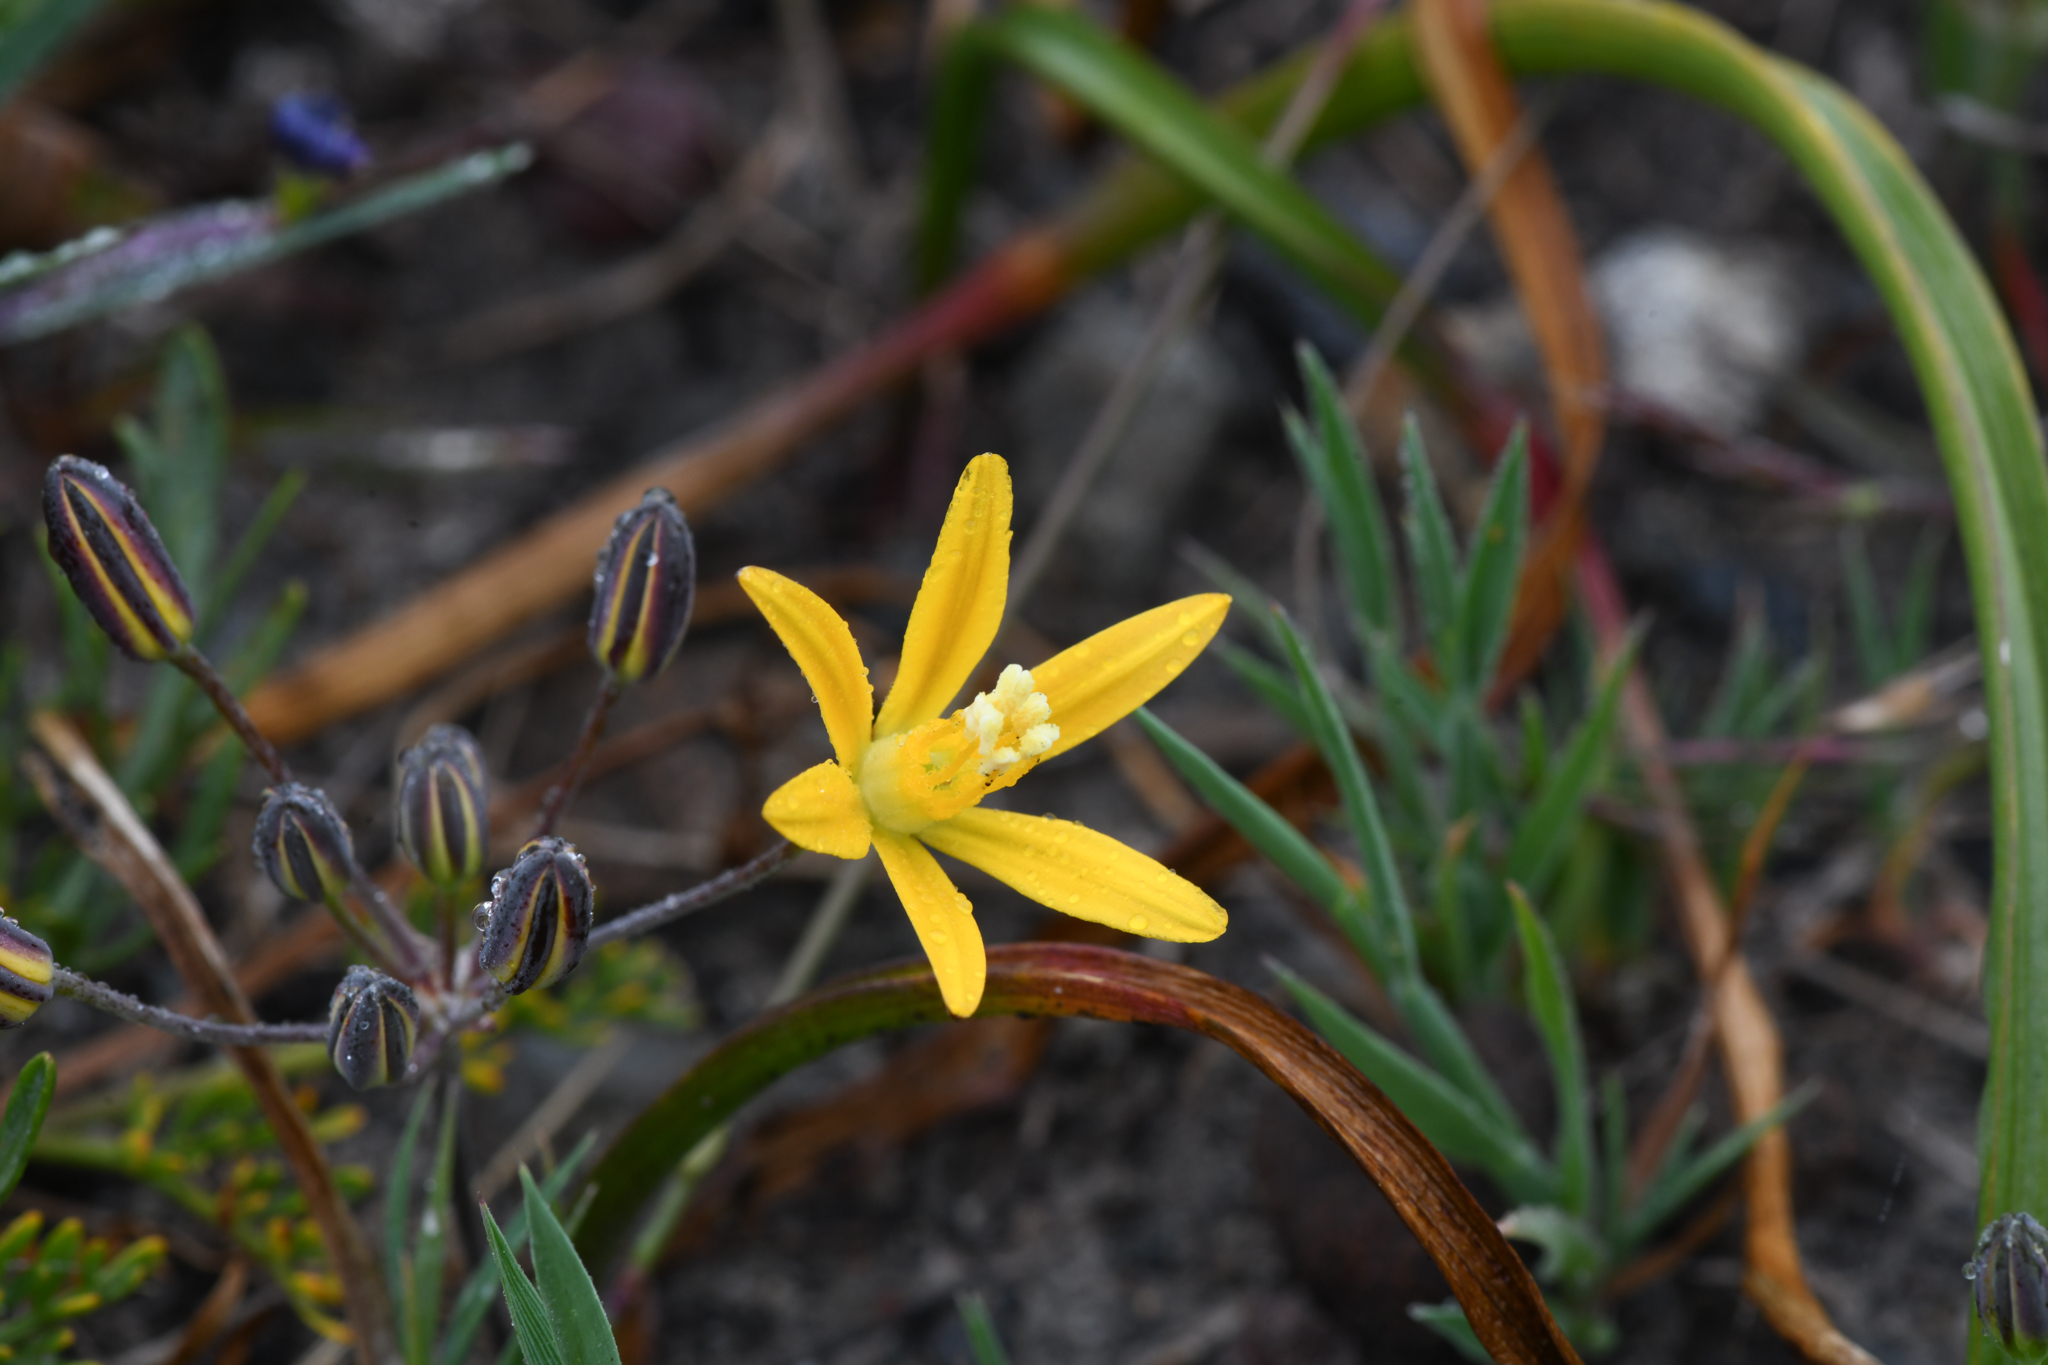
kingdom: Plantae
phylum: Tracheophyta
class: Liliopsida
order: Asparagales
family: Asparagaceae
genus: Bloomeria
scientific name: Bloomeria humilis
